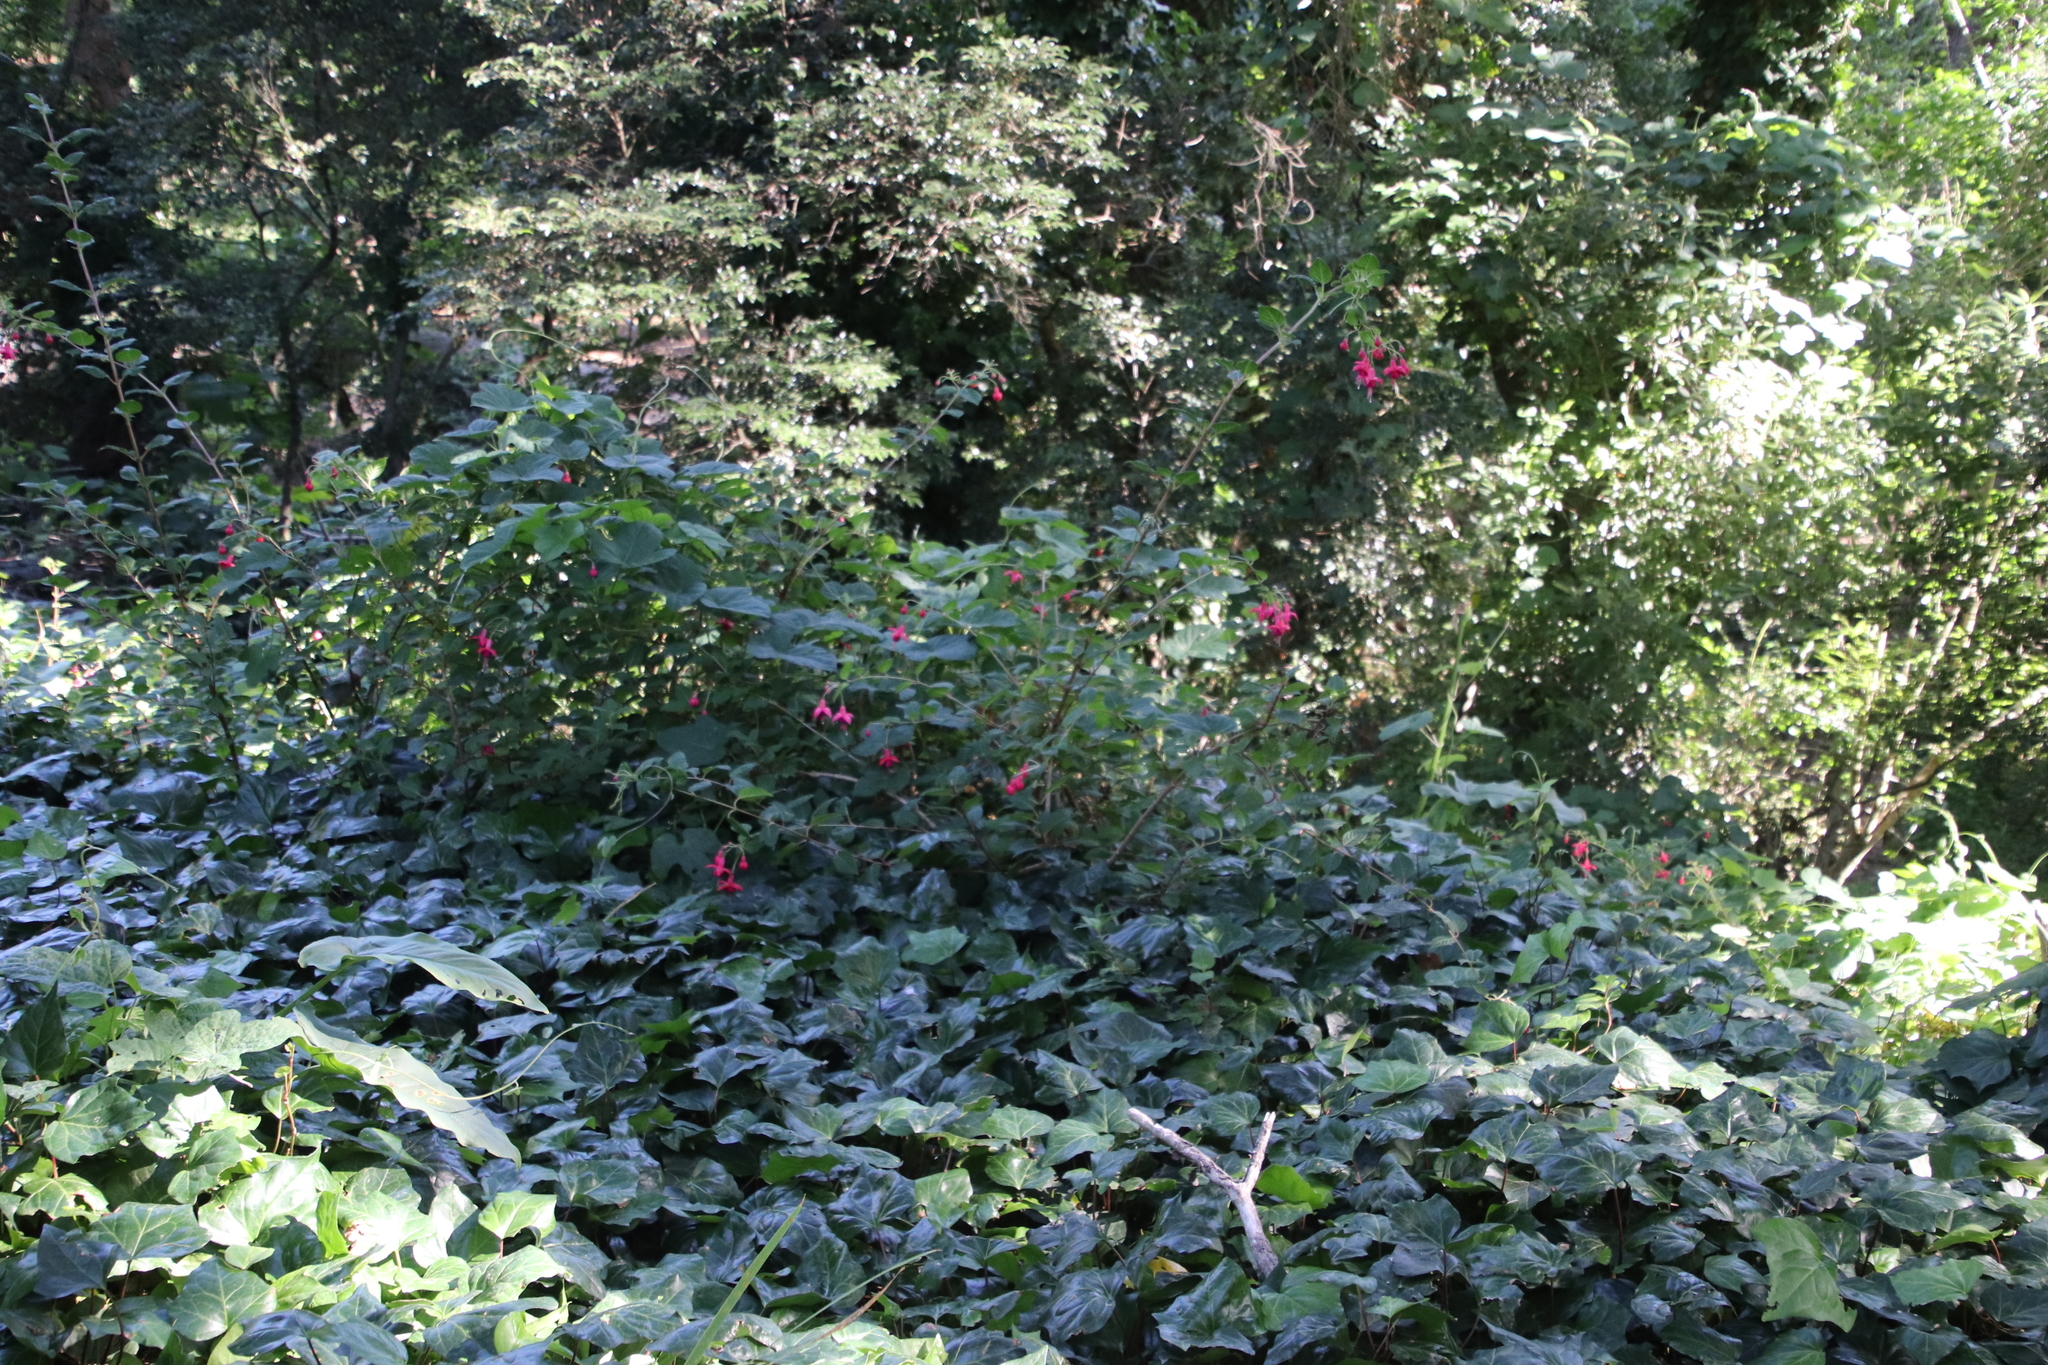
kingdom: Plantae
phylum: Tracheophyta
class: Magnoliopsida
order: Myrtales
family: Onagraceae
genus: Fuchsia
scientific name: Fuchsia hybrida
